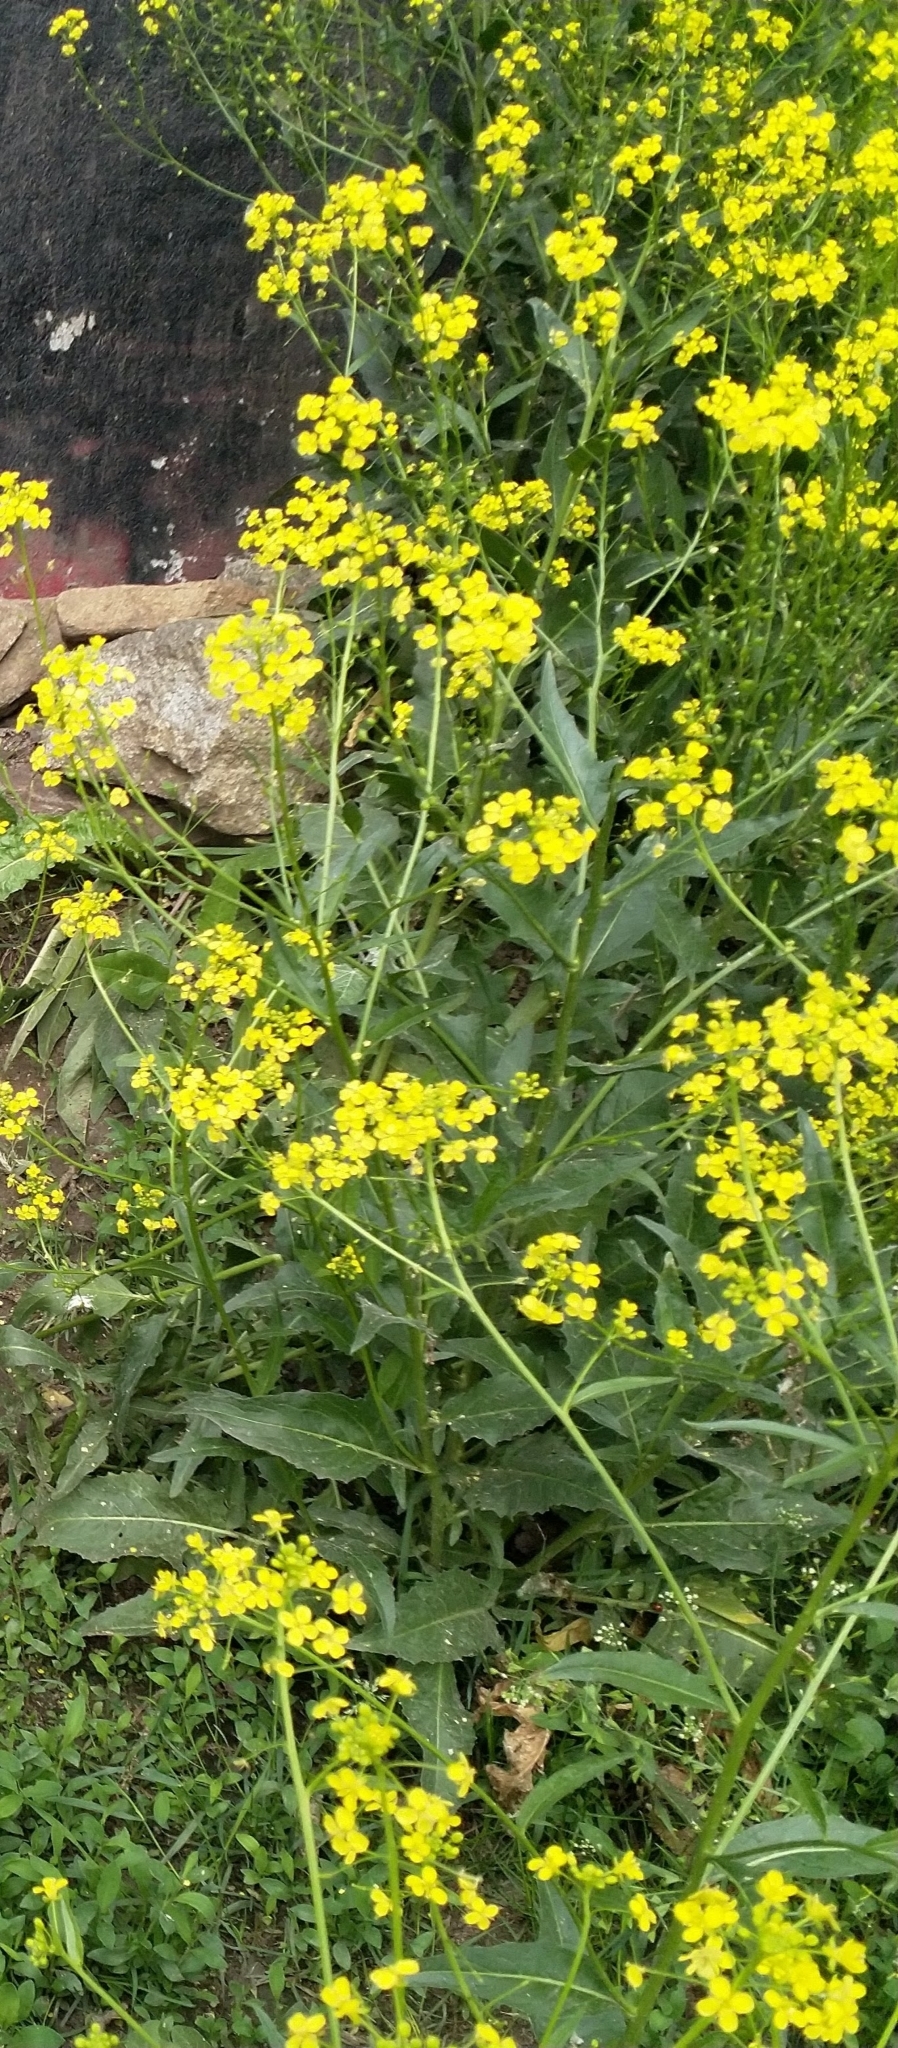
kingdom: Plantae
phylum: Tracheophyta
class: Magnoliopsida
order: Brassicales
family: Brassicaceae
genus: Bunias
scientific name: Bunias orientalis
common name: Warty-cabbage
